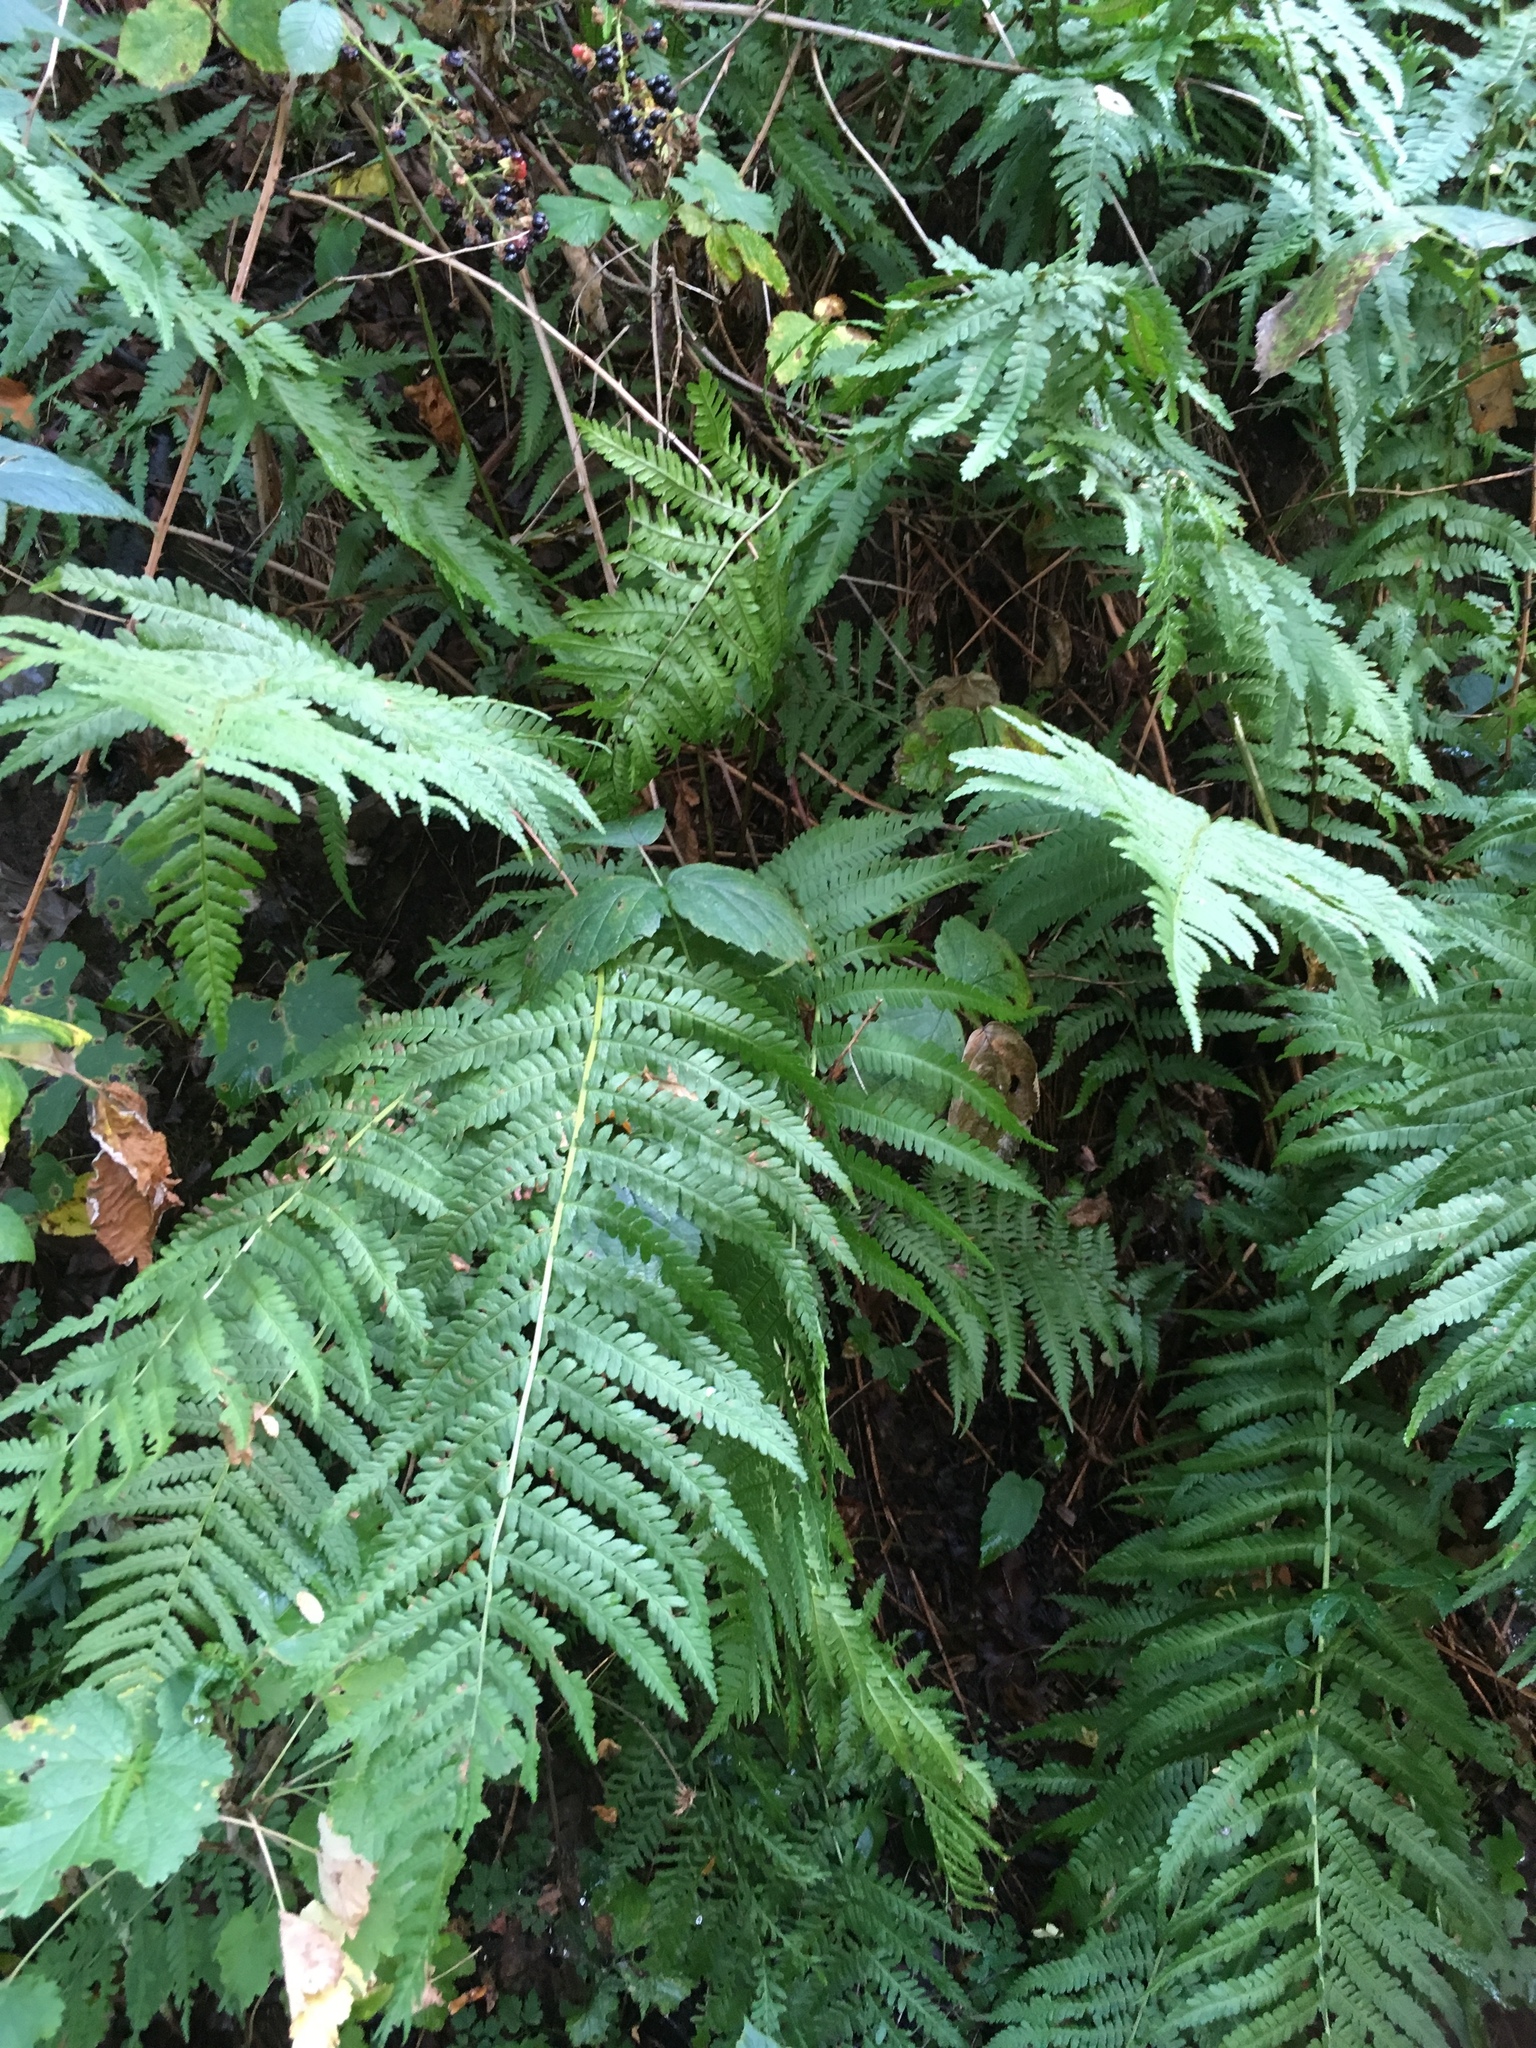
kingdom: Plantae
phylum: Tracheophyta
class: Polypodiopsida
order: Polypodiales
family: Dryopteridaceae
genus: Dryopteris
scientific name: Dryopteris filix-mas
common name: Male fern
